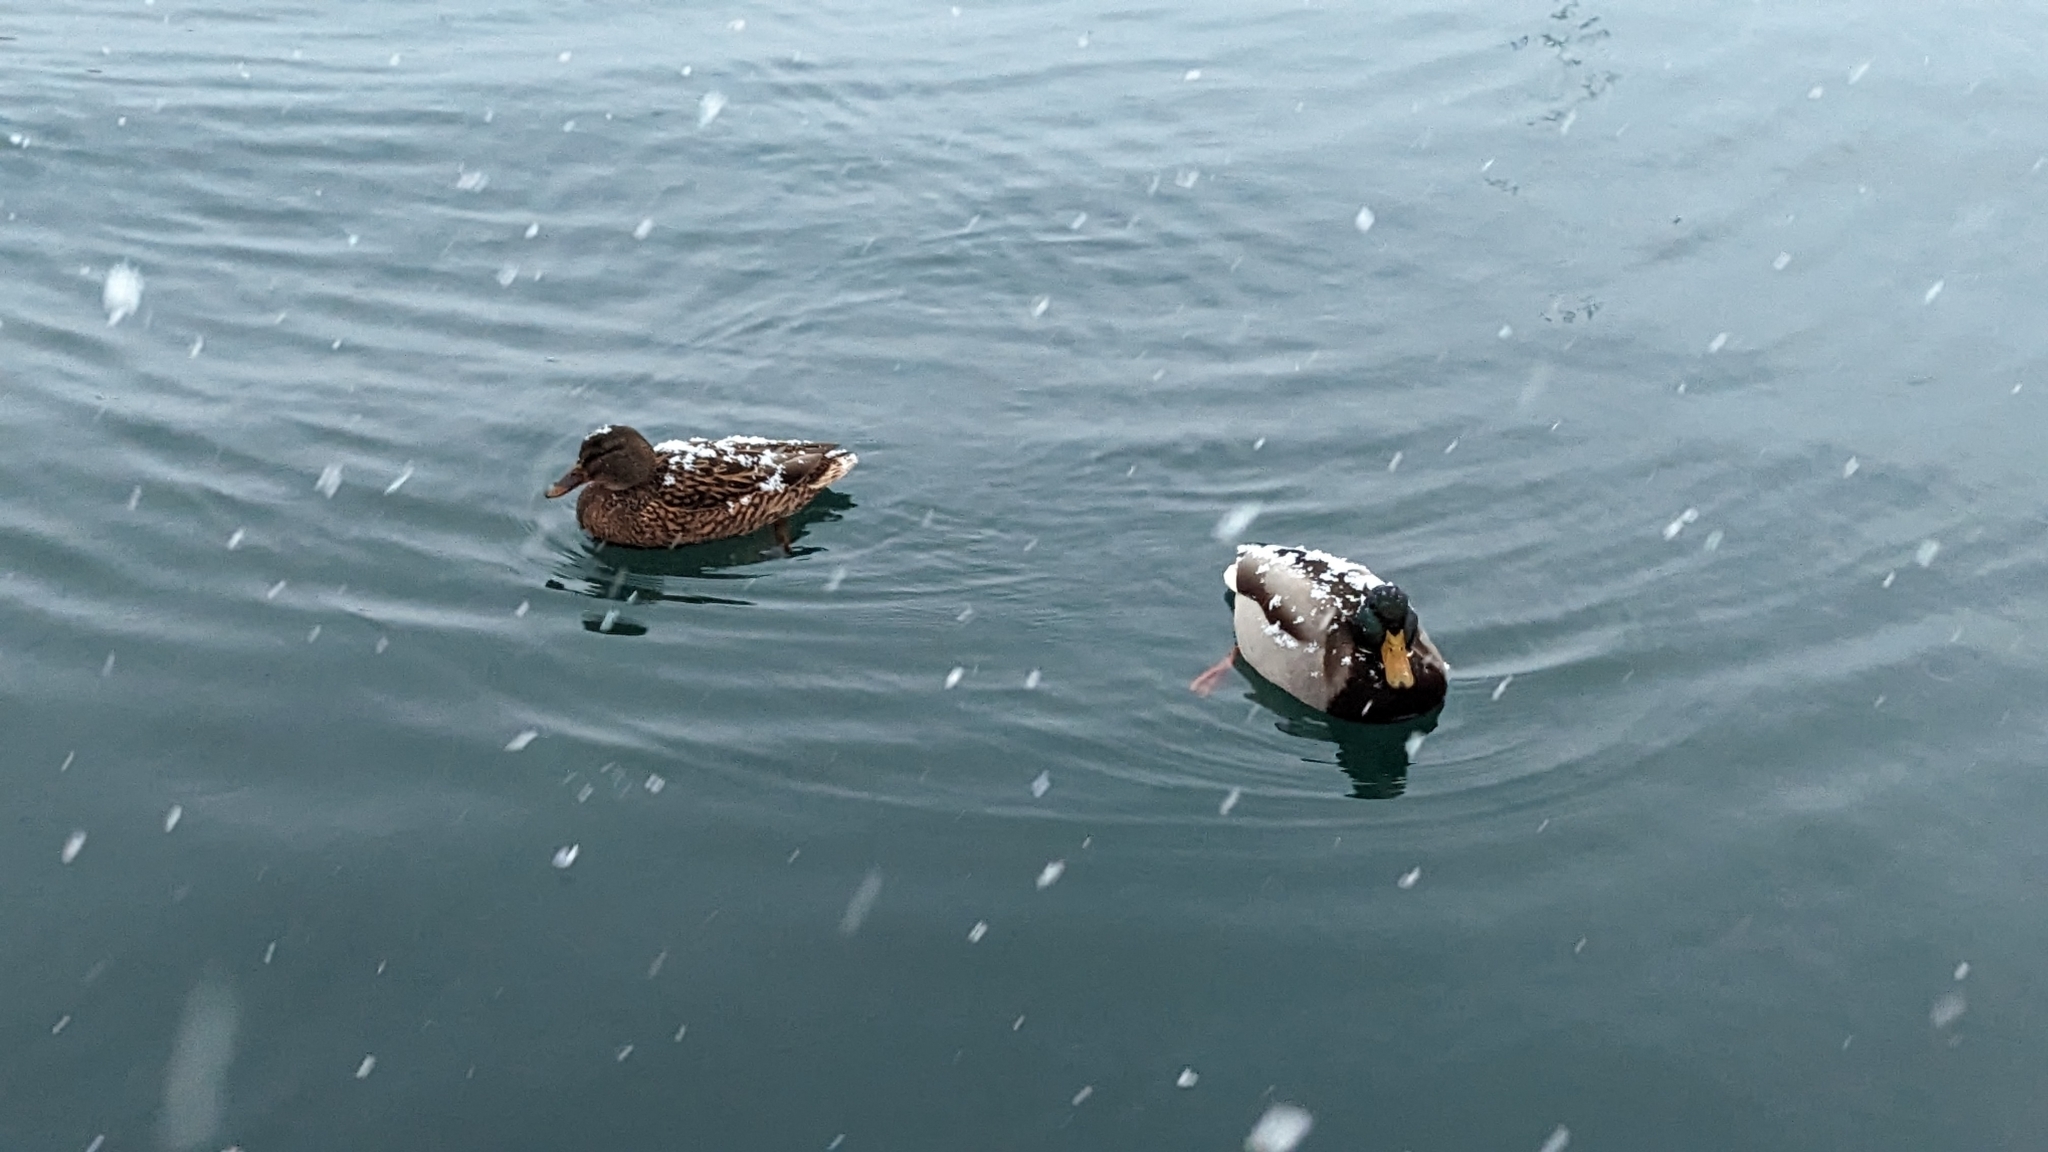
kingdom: Animalia
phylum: Chordata
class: Aves
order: Anseriformes
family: Anatidae
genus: Anas
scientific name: Anas platyrhynchos
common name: Mallard
